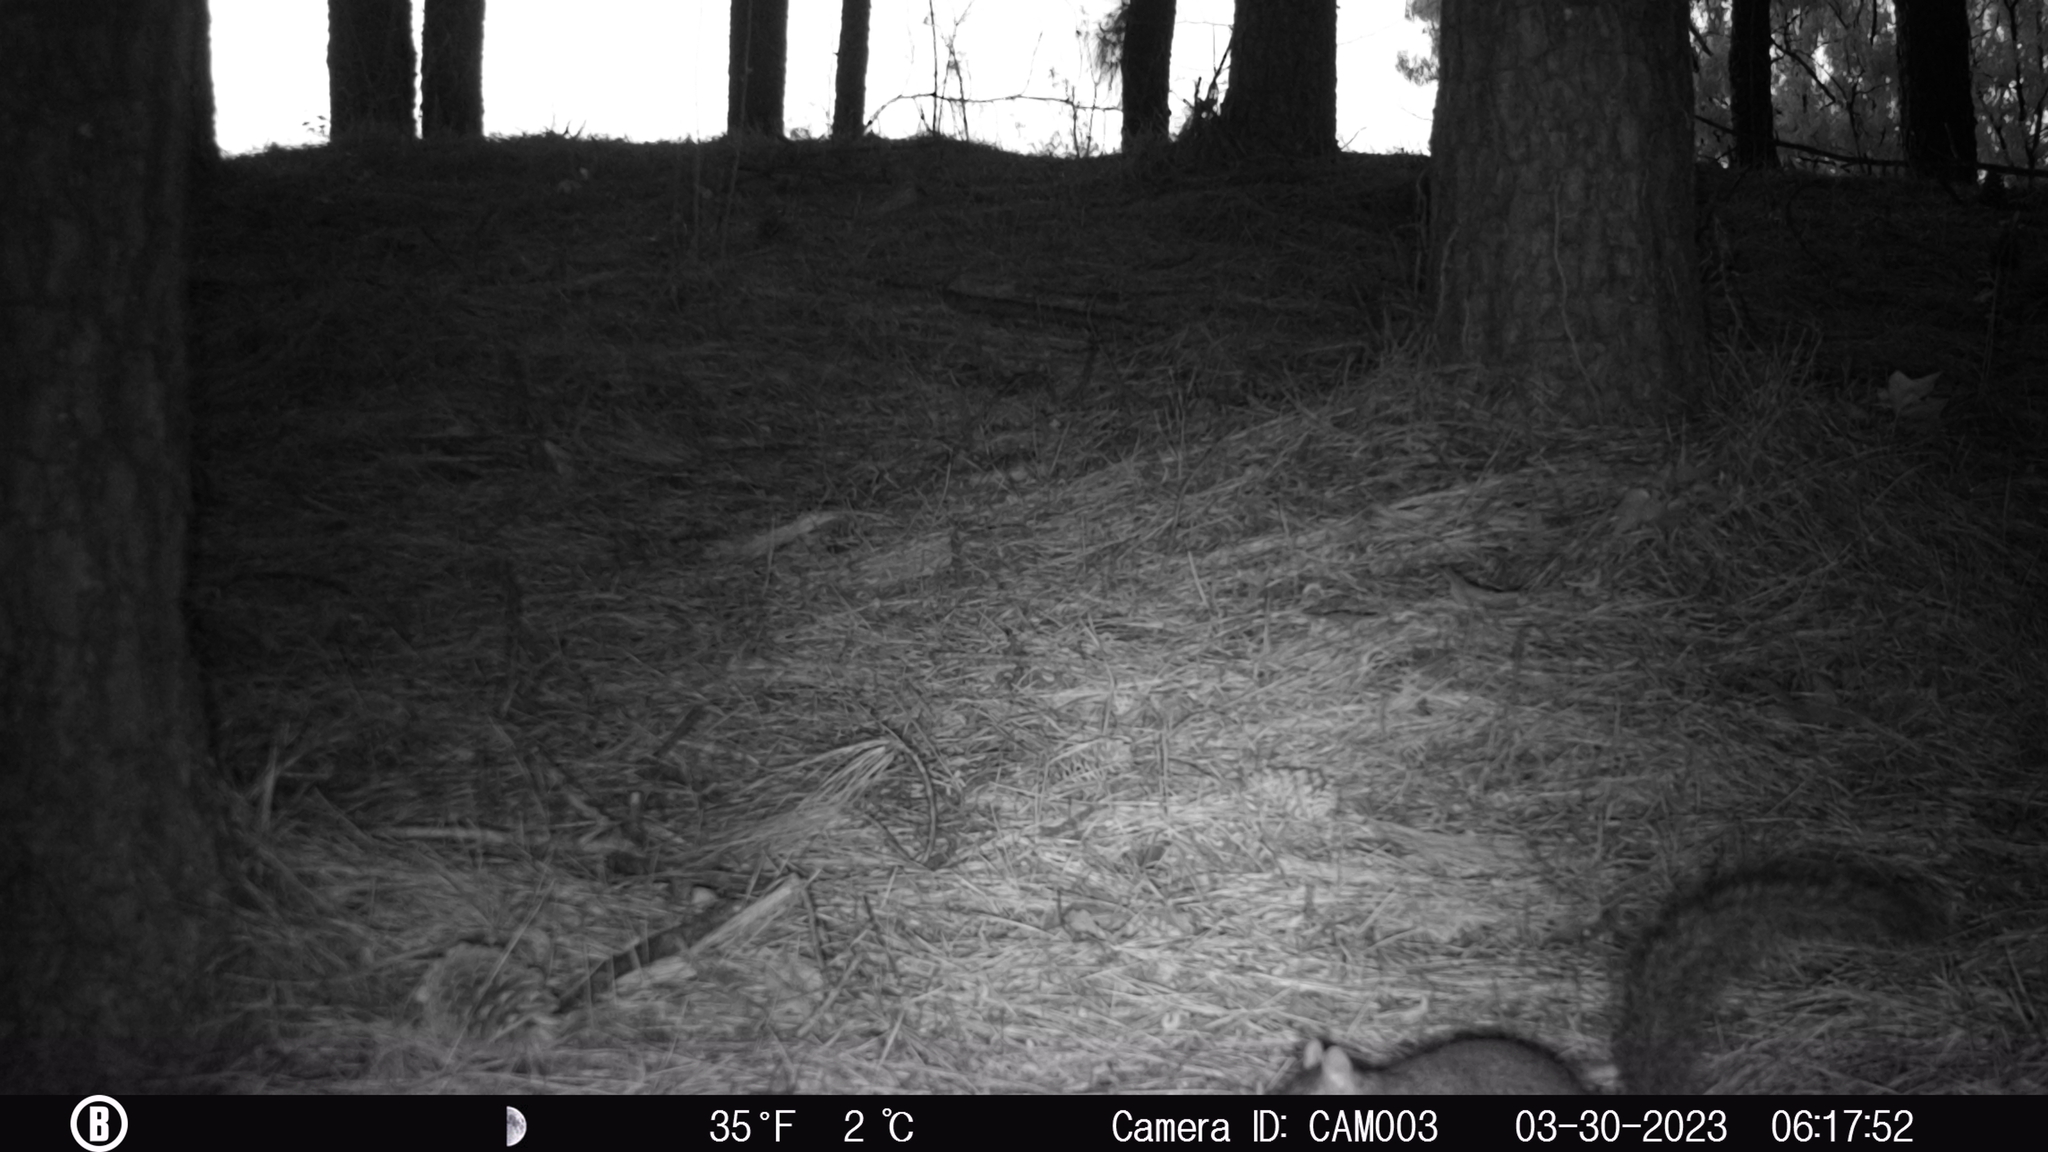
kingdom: Animalia
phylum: Chordata
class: Mammalia
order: Rodentia
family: Sciuridae
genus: Sciurus
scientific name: Sciurus carolinensis
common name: Eastern gray squirrel
